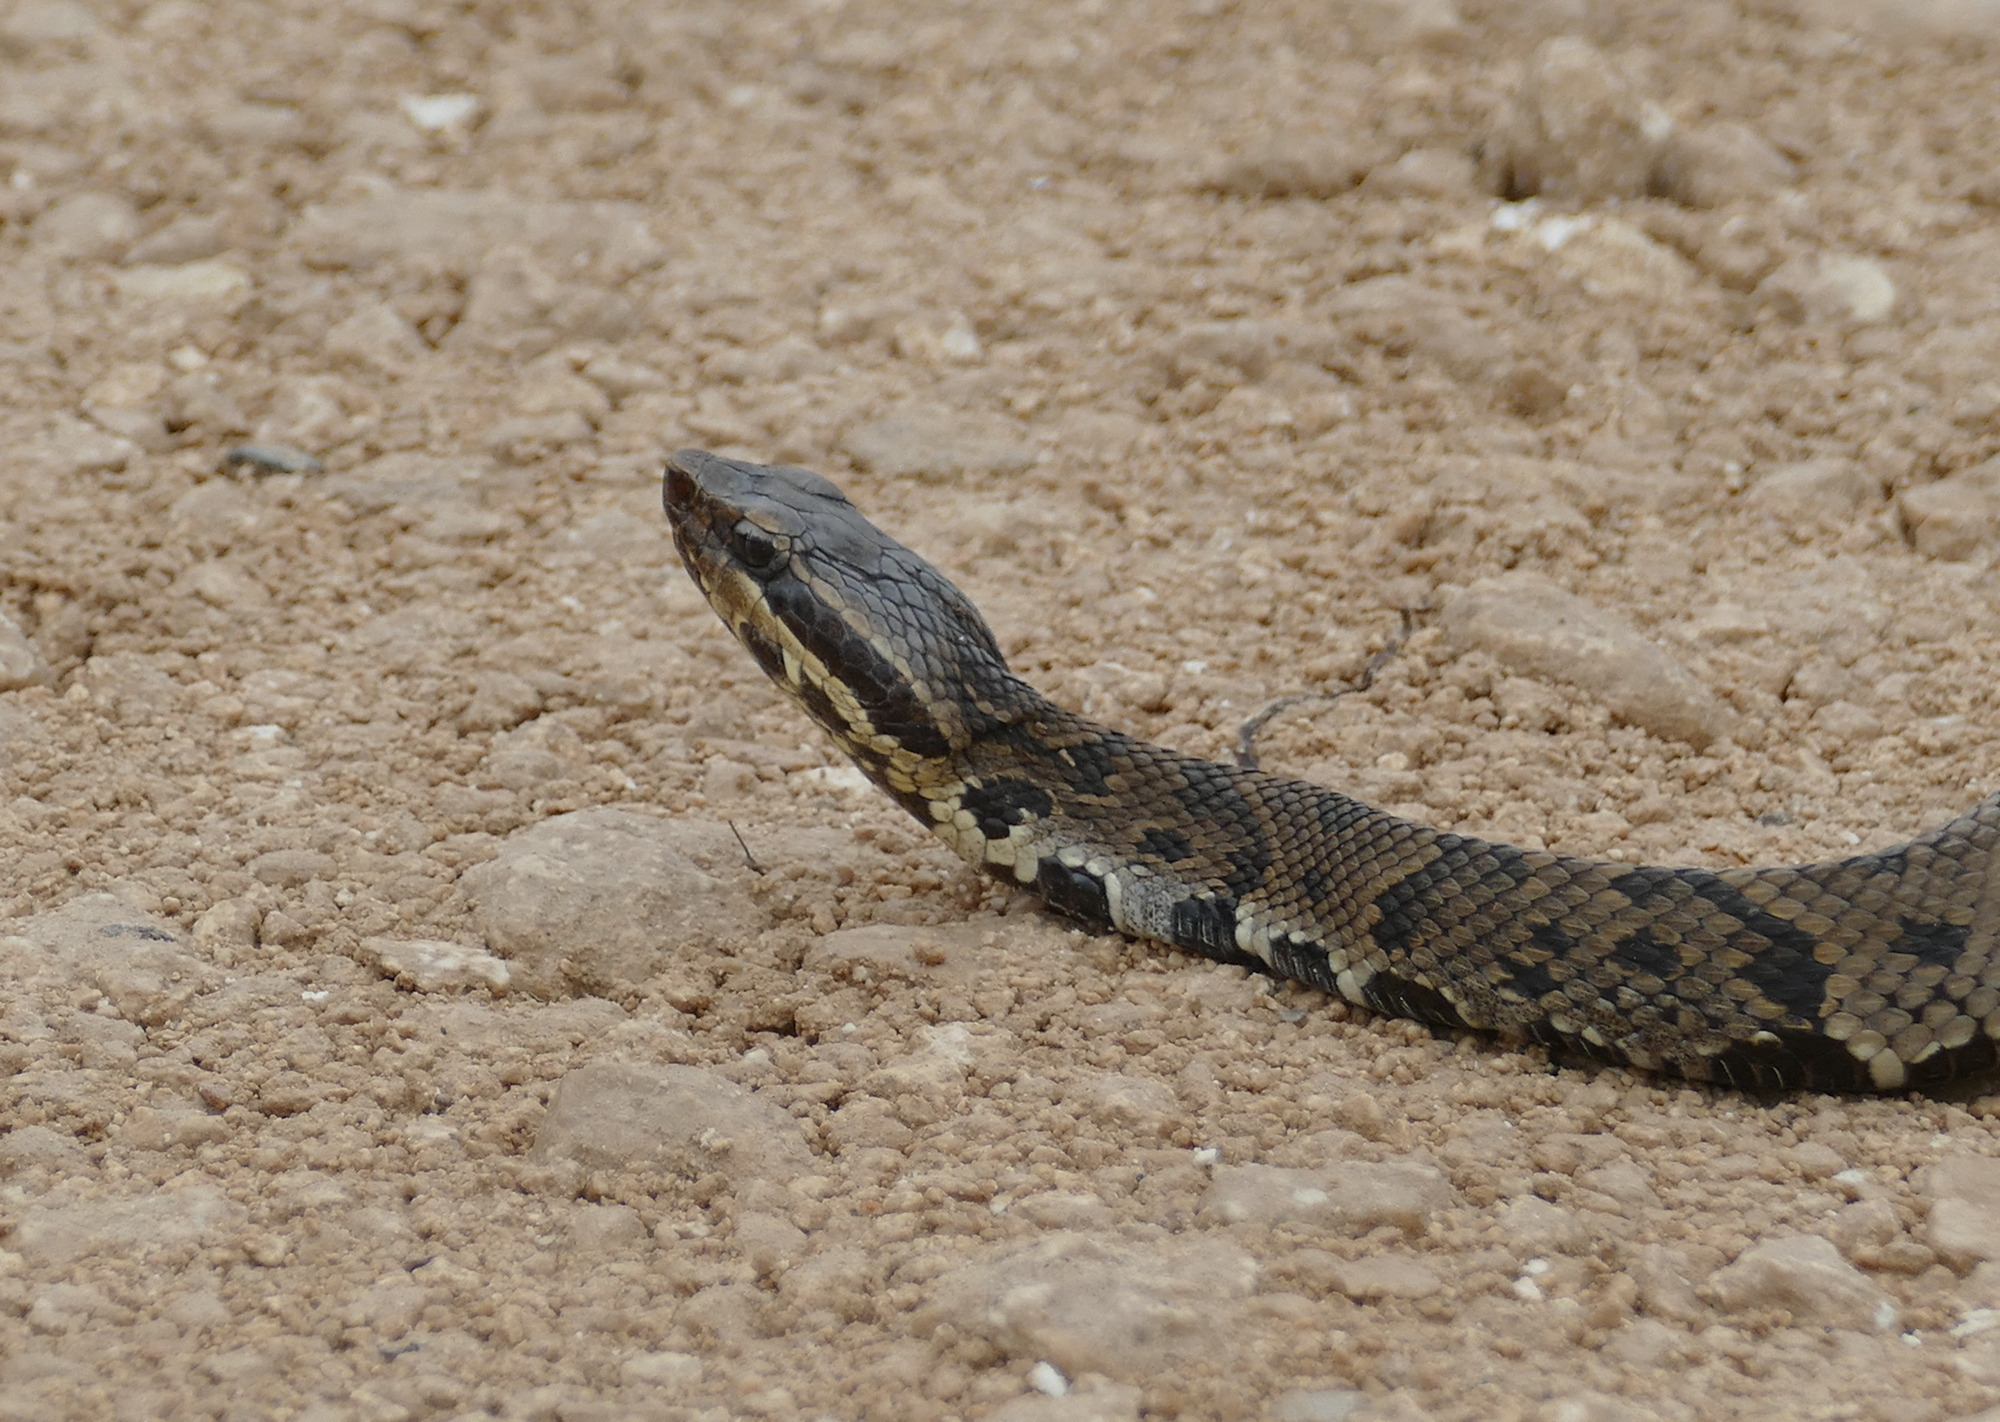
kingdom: Animalia
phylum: Chordata
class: Squamata
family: Viperidae
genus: Agkistrodon
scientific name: Agkistrodon piscivorus
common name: Cottonmouth
